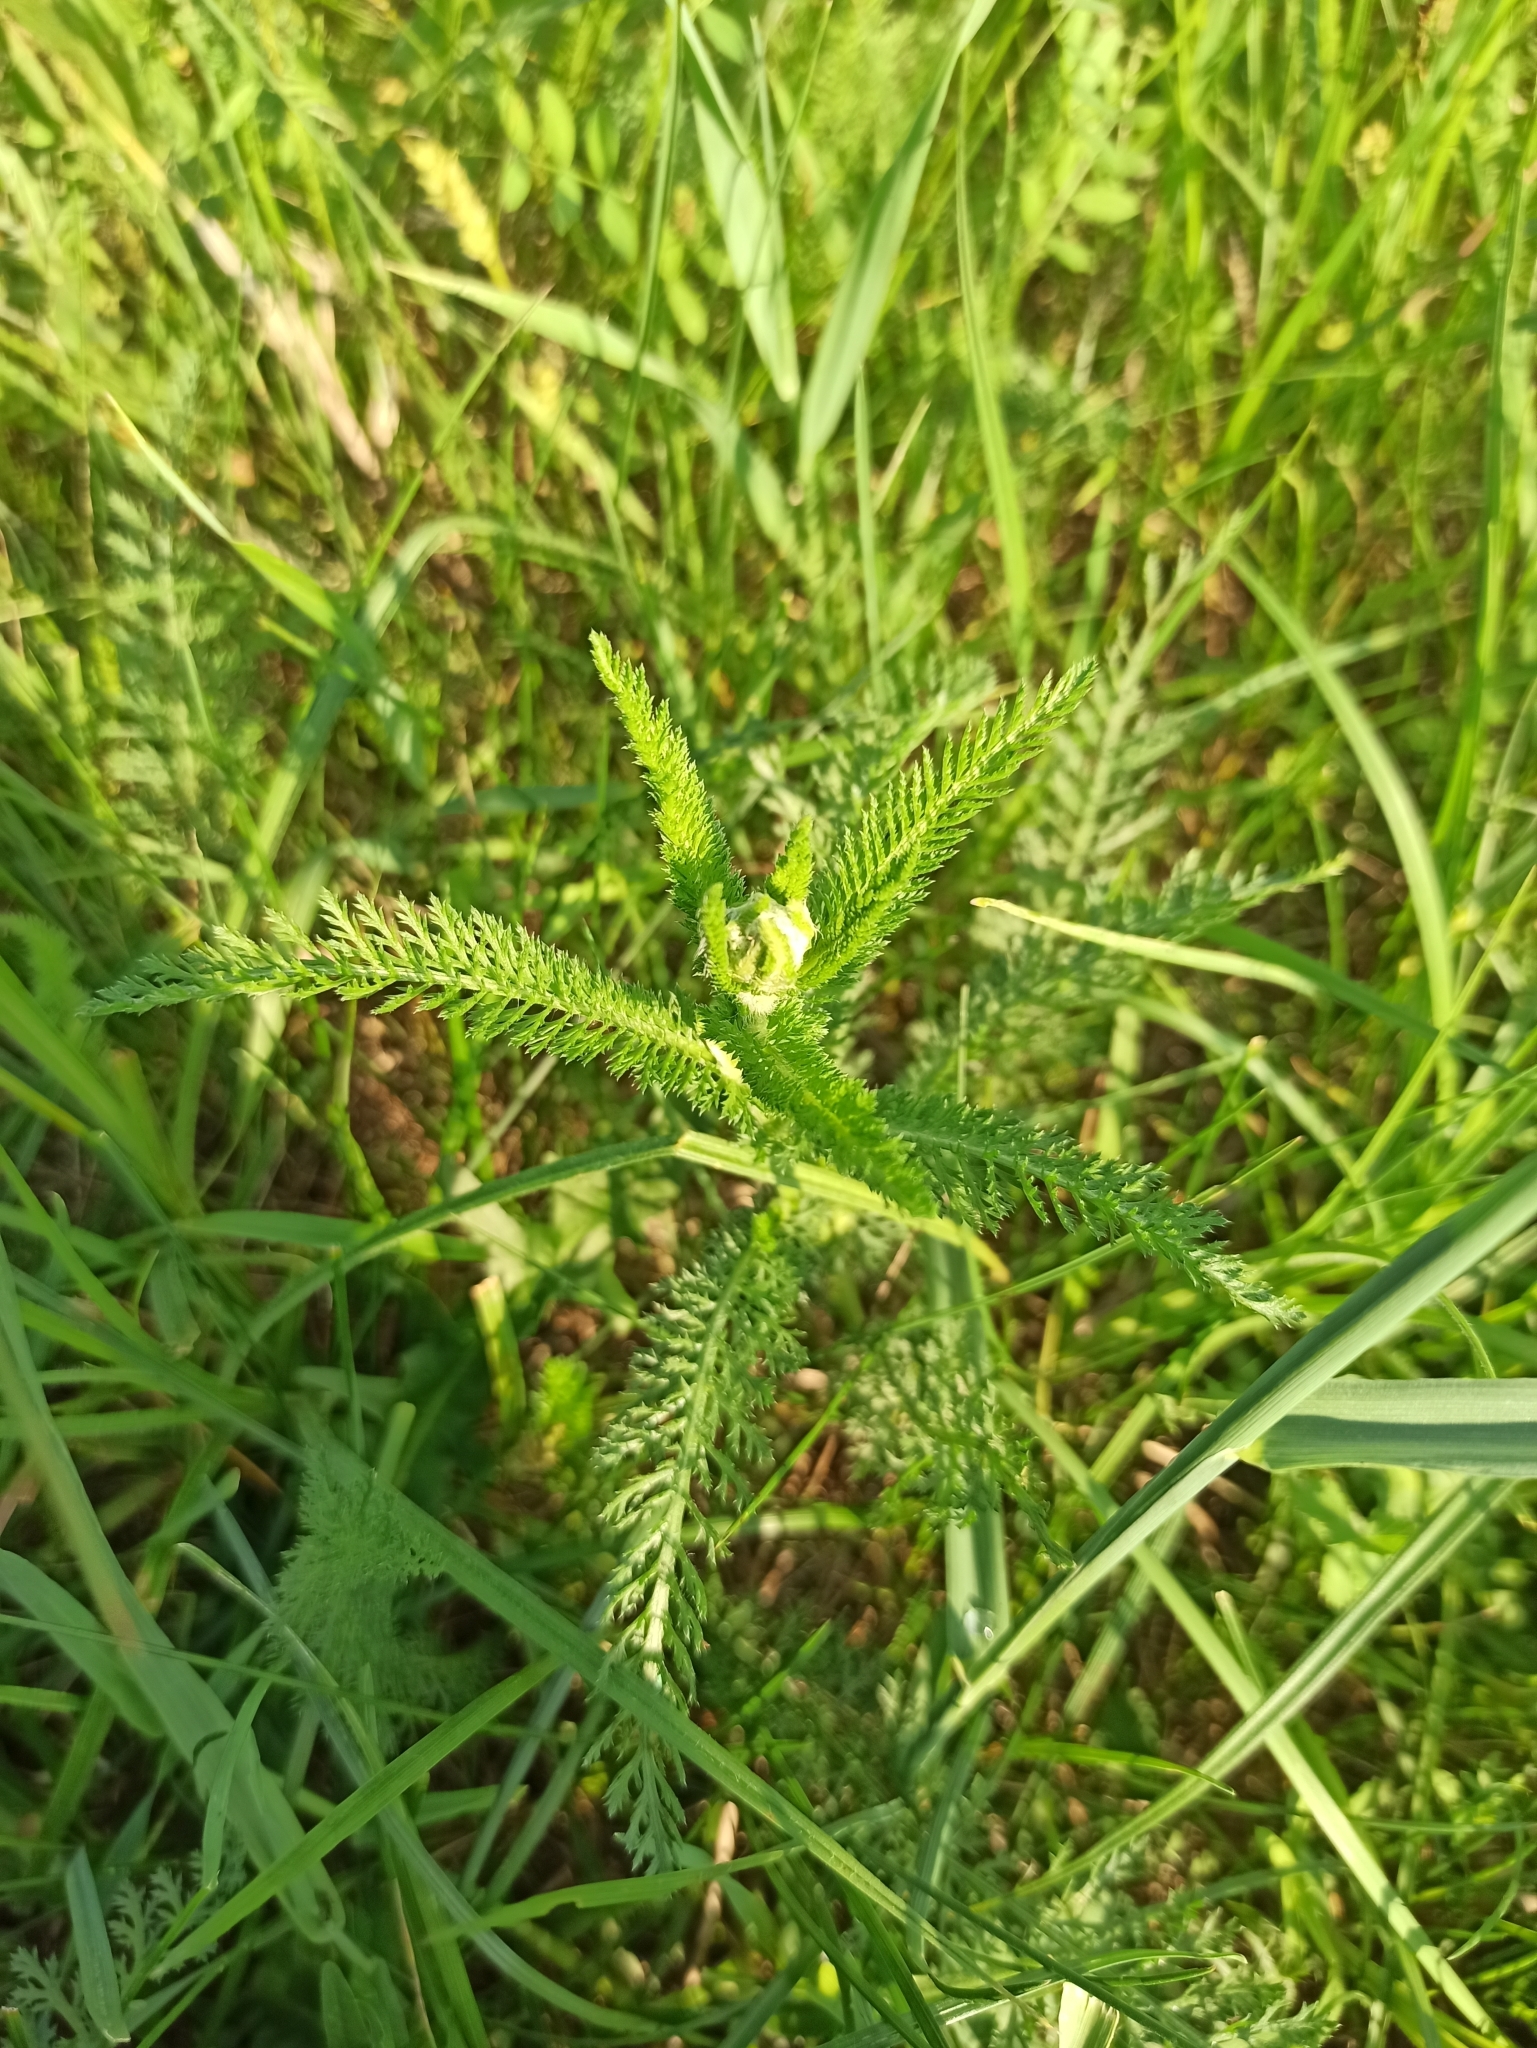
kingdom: Plantae
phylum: Tracheophyta
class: Magnoliopsida
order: Asterales
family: Asteraceae
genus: Achillea
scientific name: Achillea millefolium
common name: Yarrow
